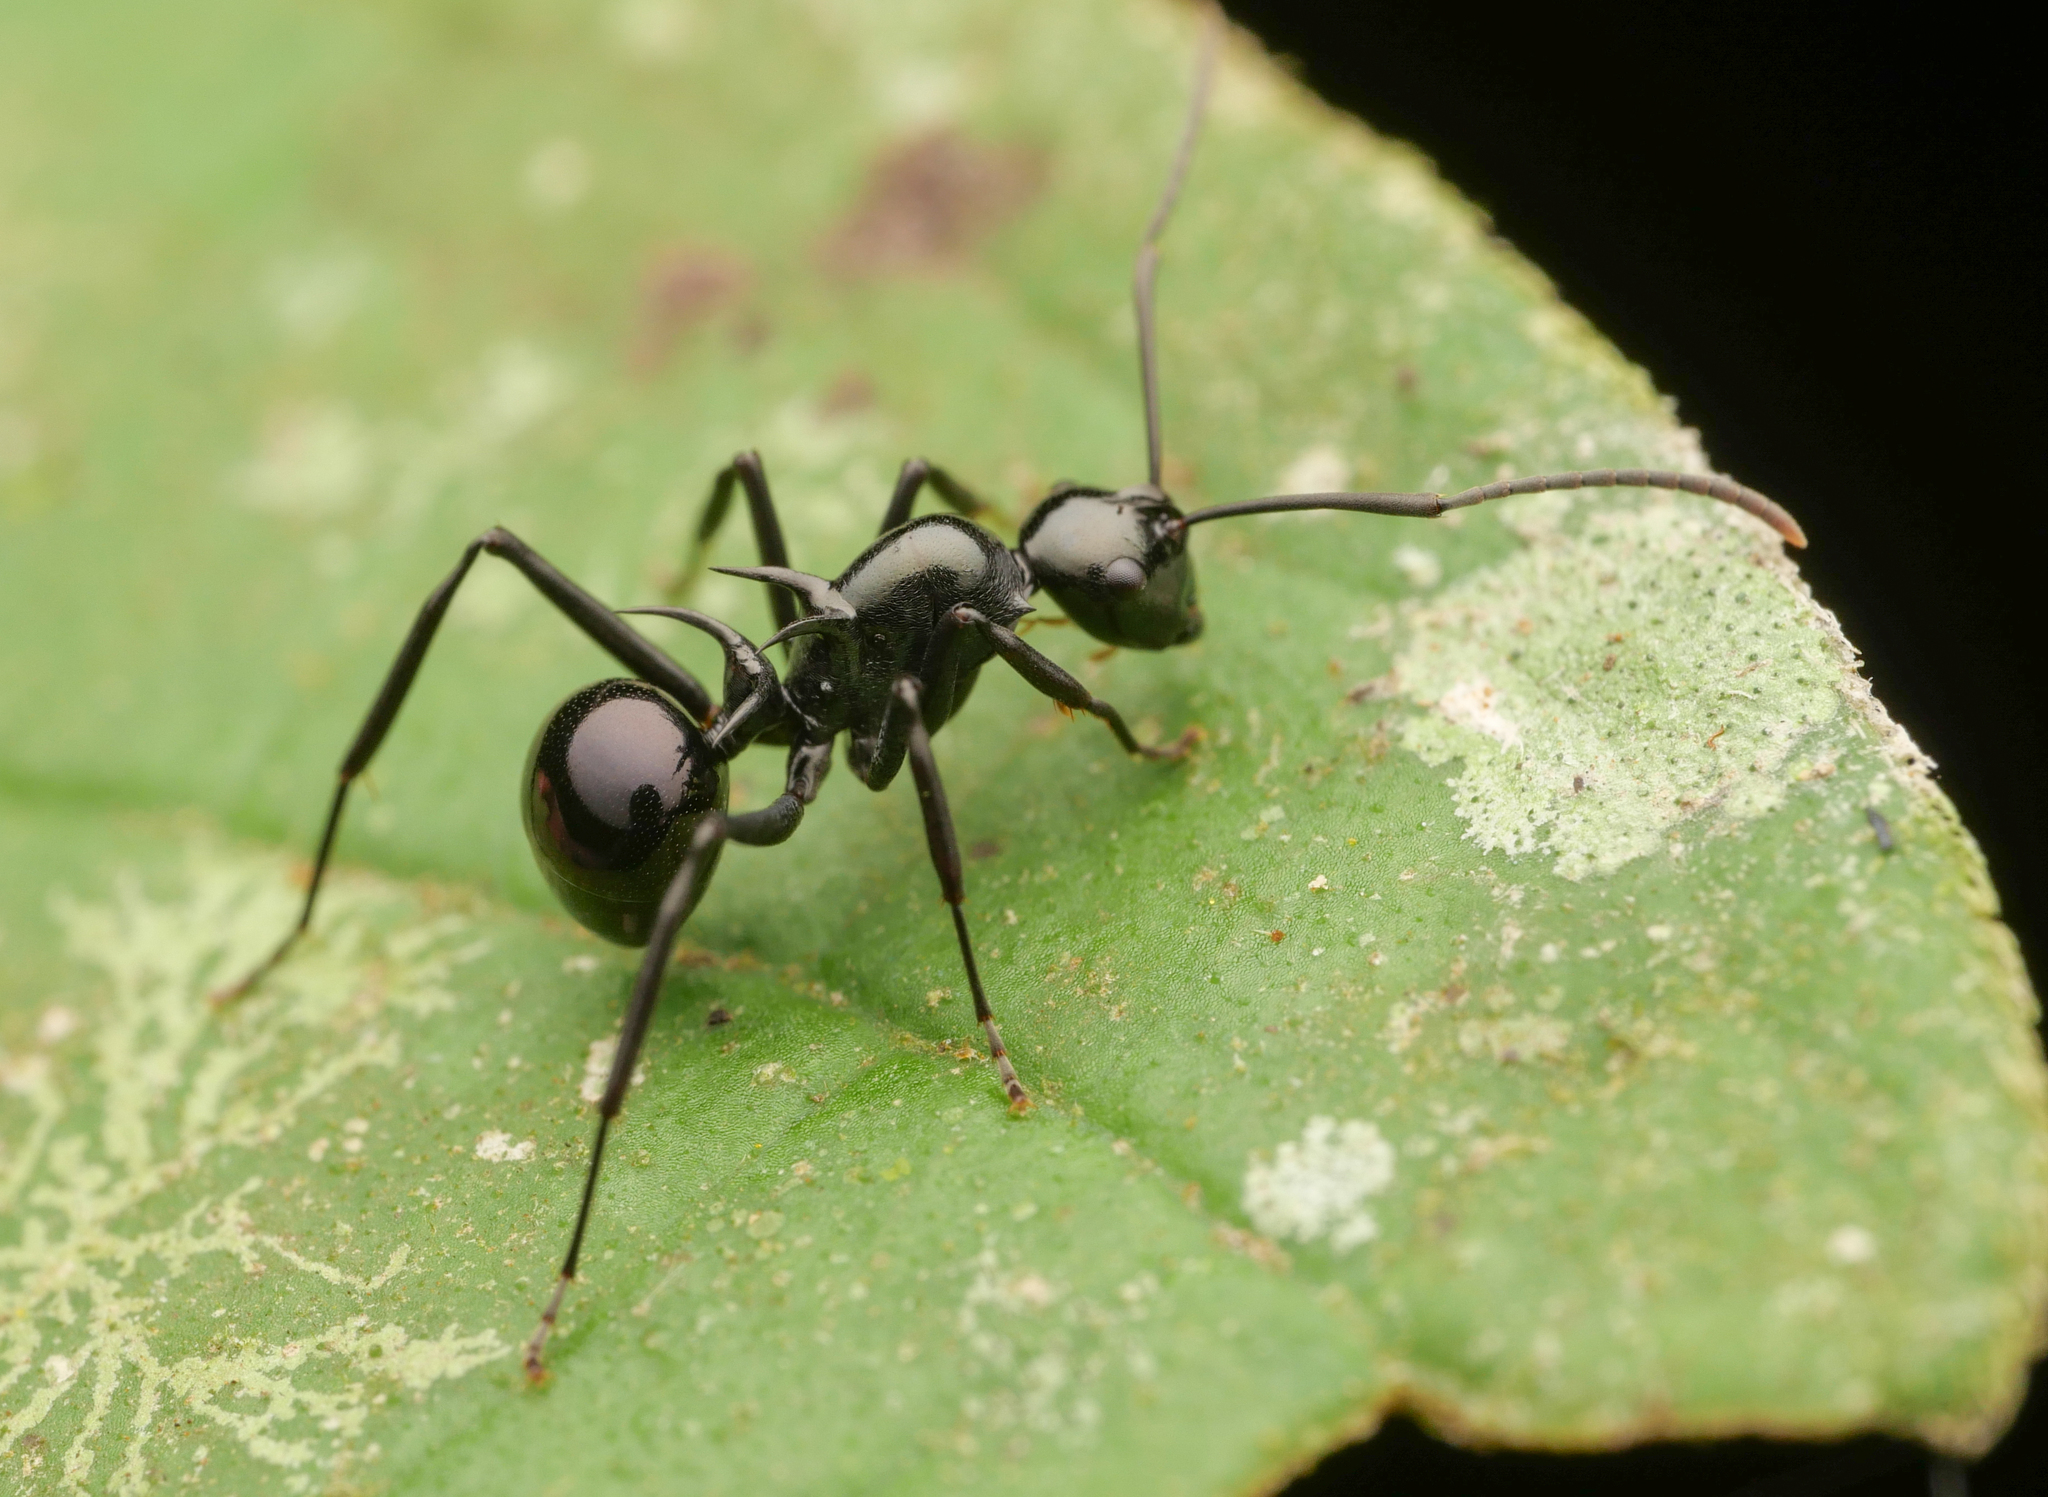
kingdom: Animalia
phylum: Arthropoda
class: Insecta
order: Hymenoptera
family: Formicidae
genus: Polyrhachis
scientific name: Polyrhachis mucronata
